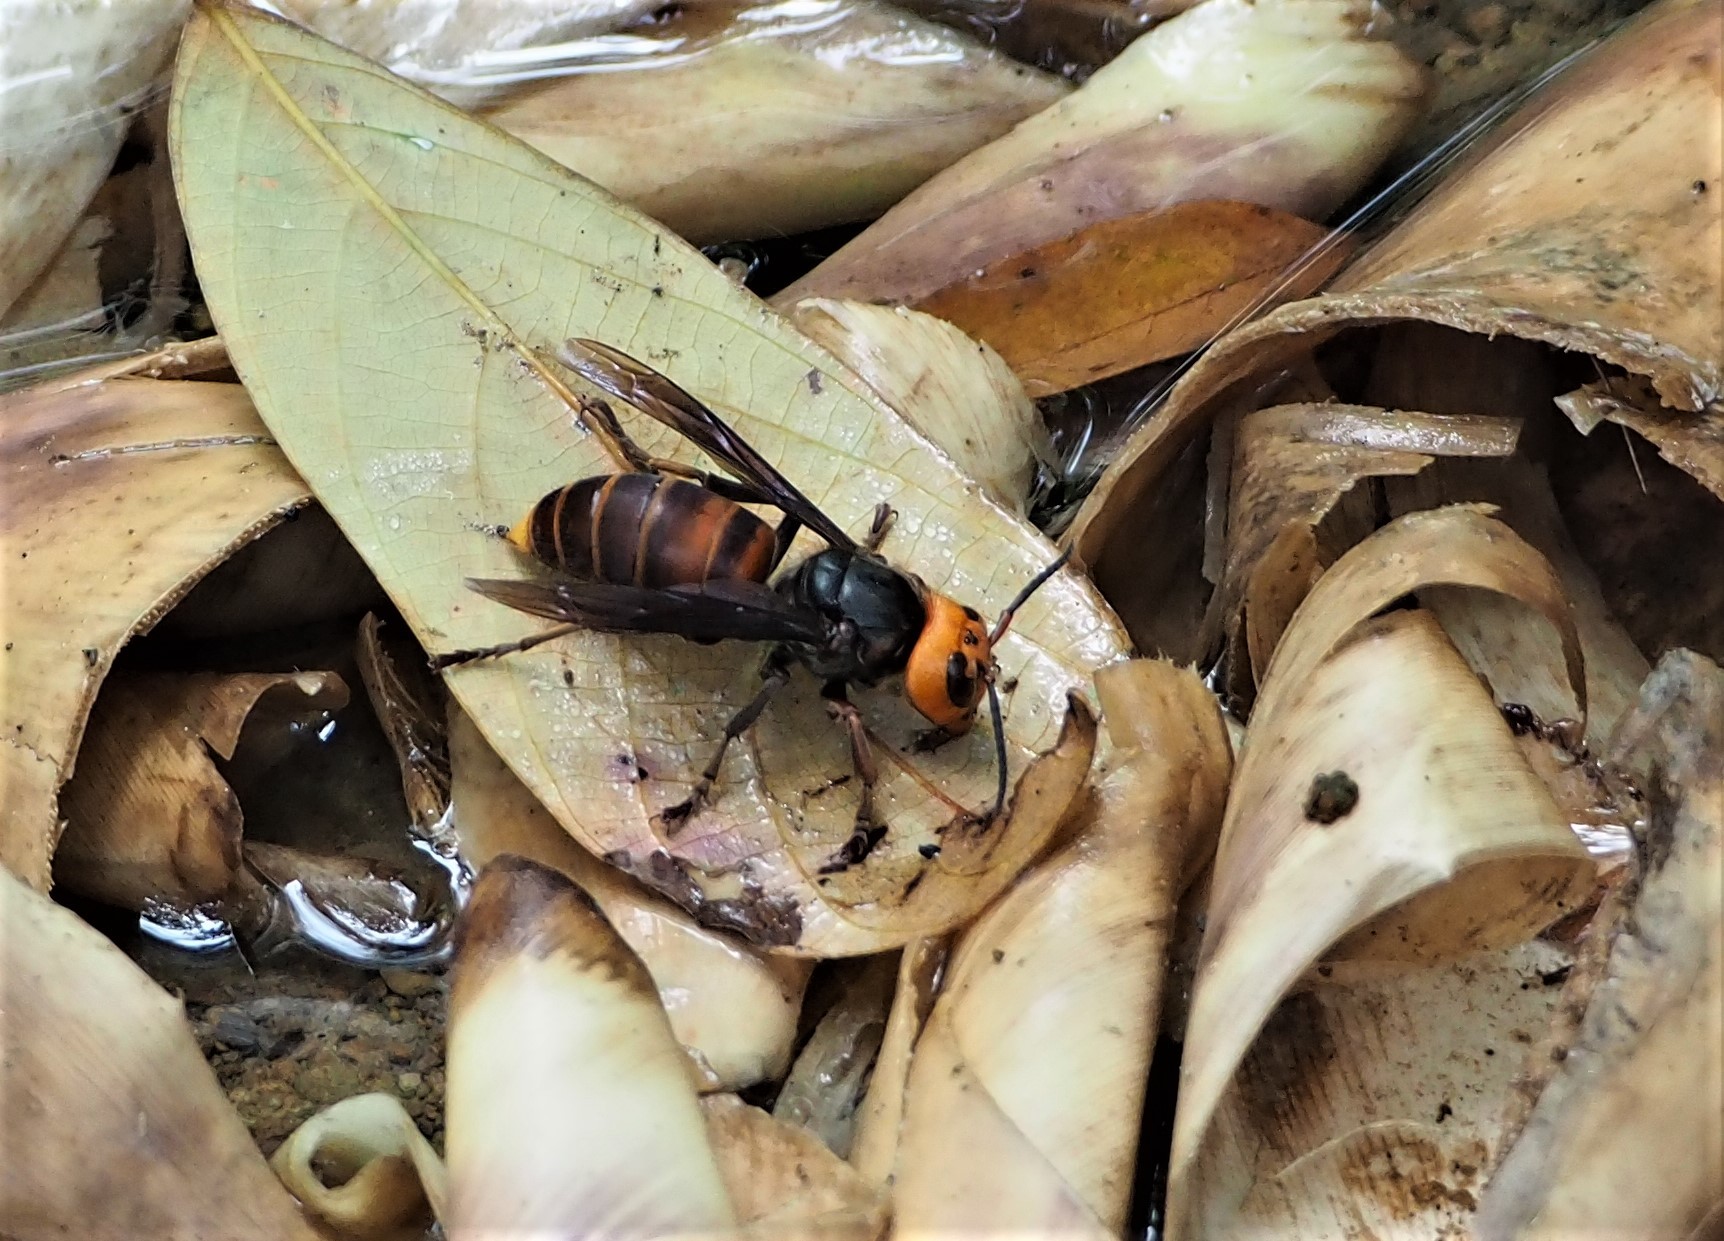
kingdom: Animalia
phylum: Arthropoda
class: Insecta
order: Hymenoptera
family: Vespidae
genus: Vespa
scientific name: Vespa mandarinia
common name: Asian giant hornet
